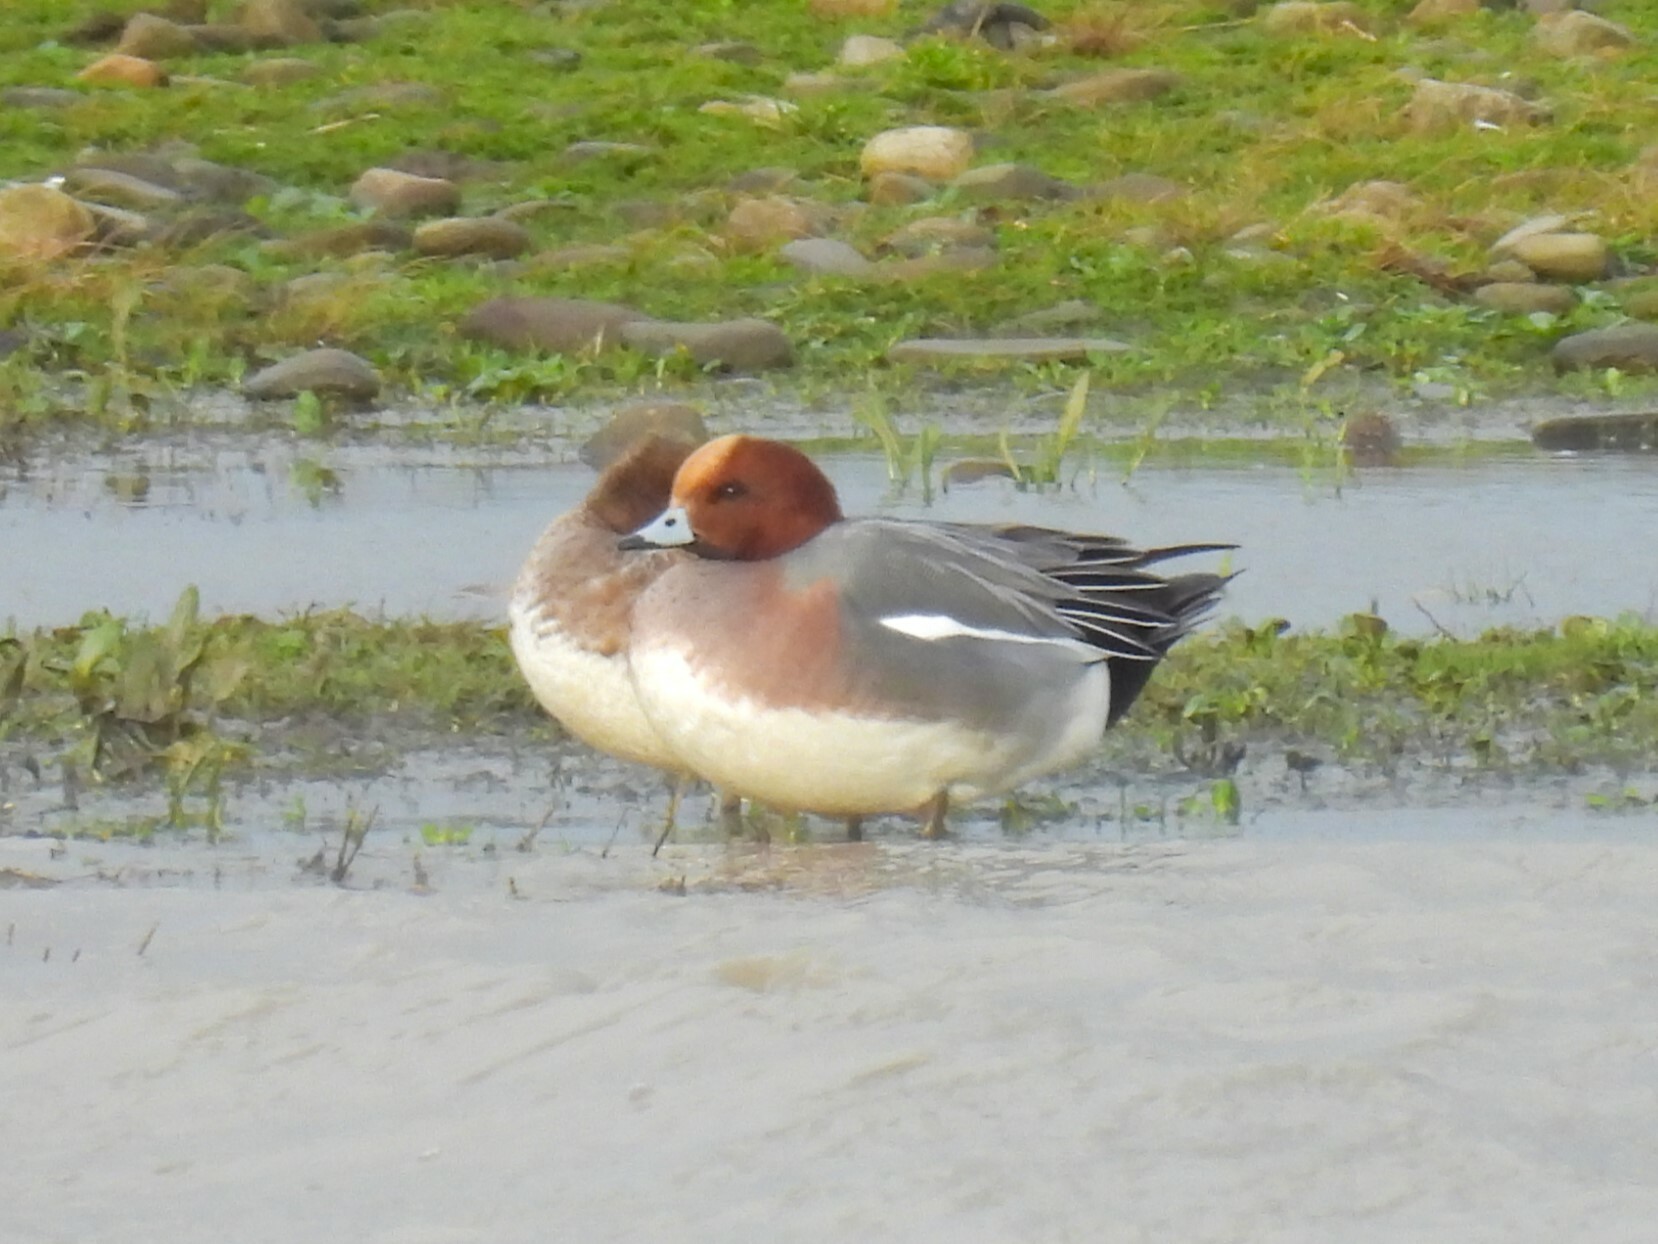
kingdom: Animalia
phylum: Chordata
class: Aves
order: Anseriformes
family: Anatidae
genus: Mareca
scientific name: Mareca penelope
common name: Eurasian wigeon
